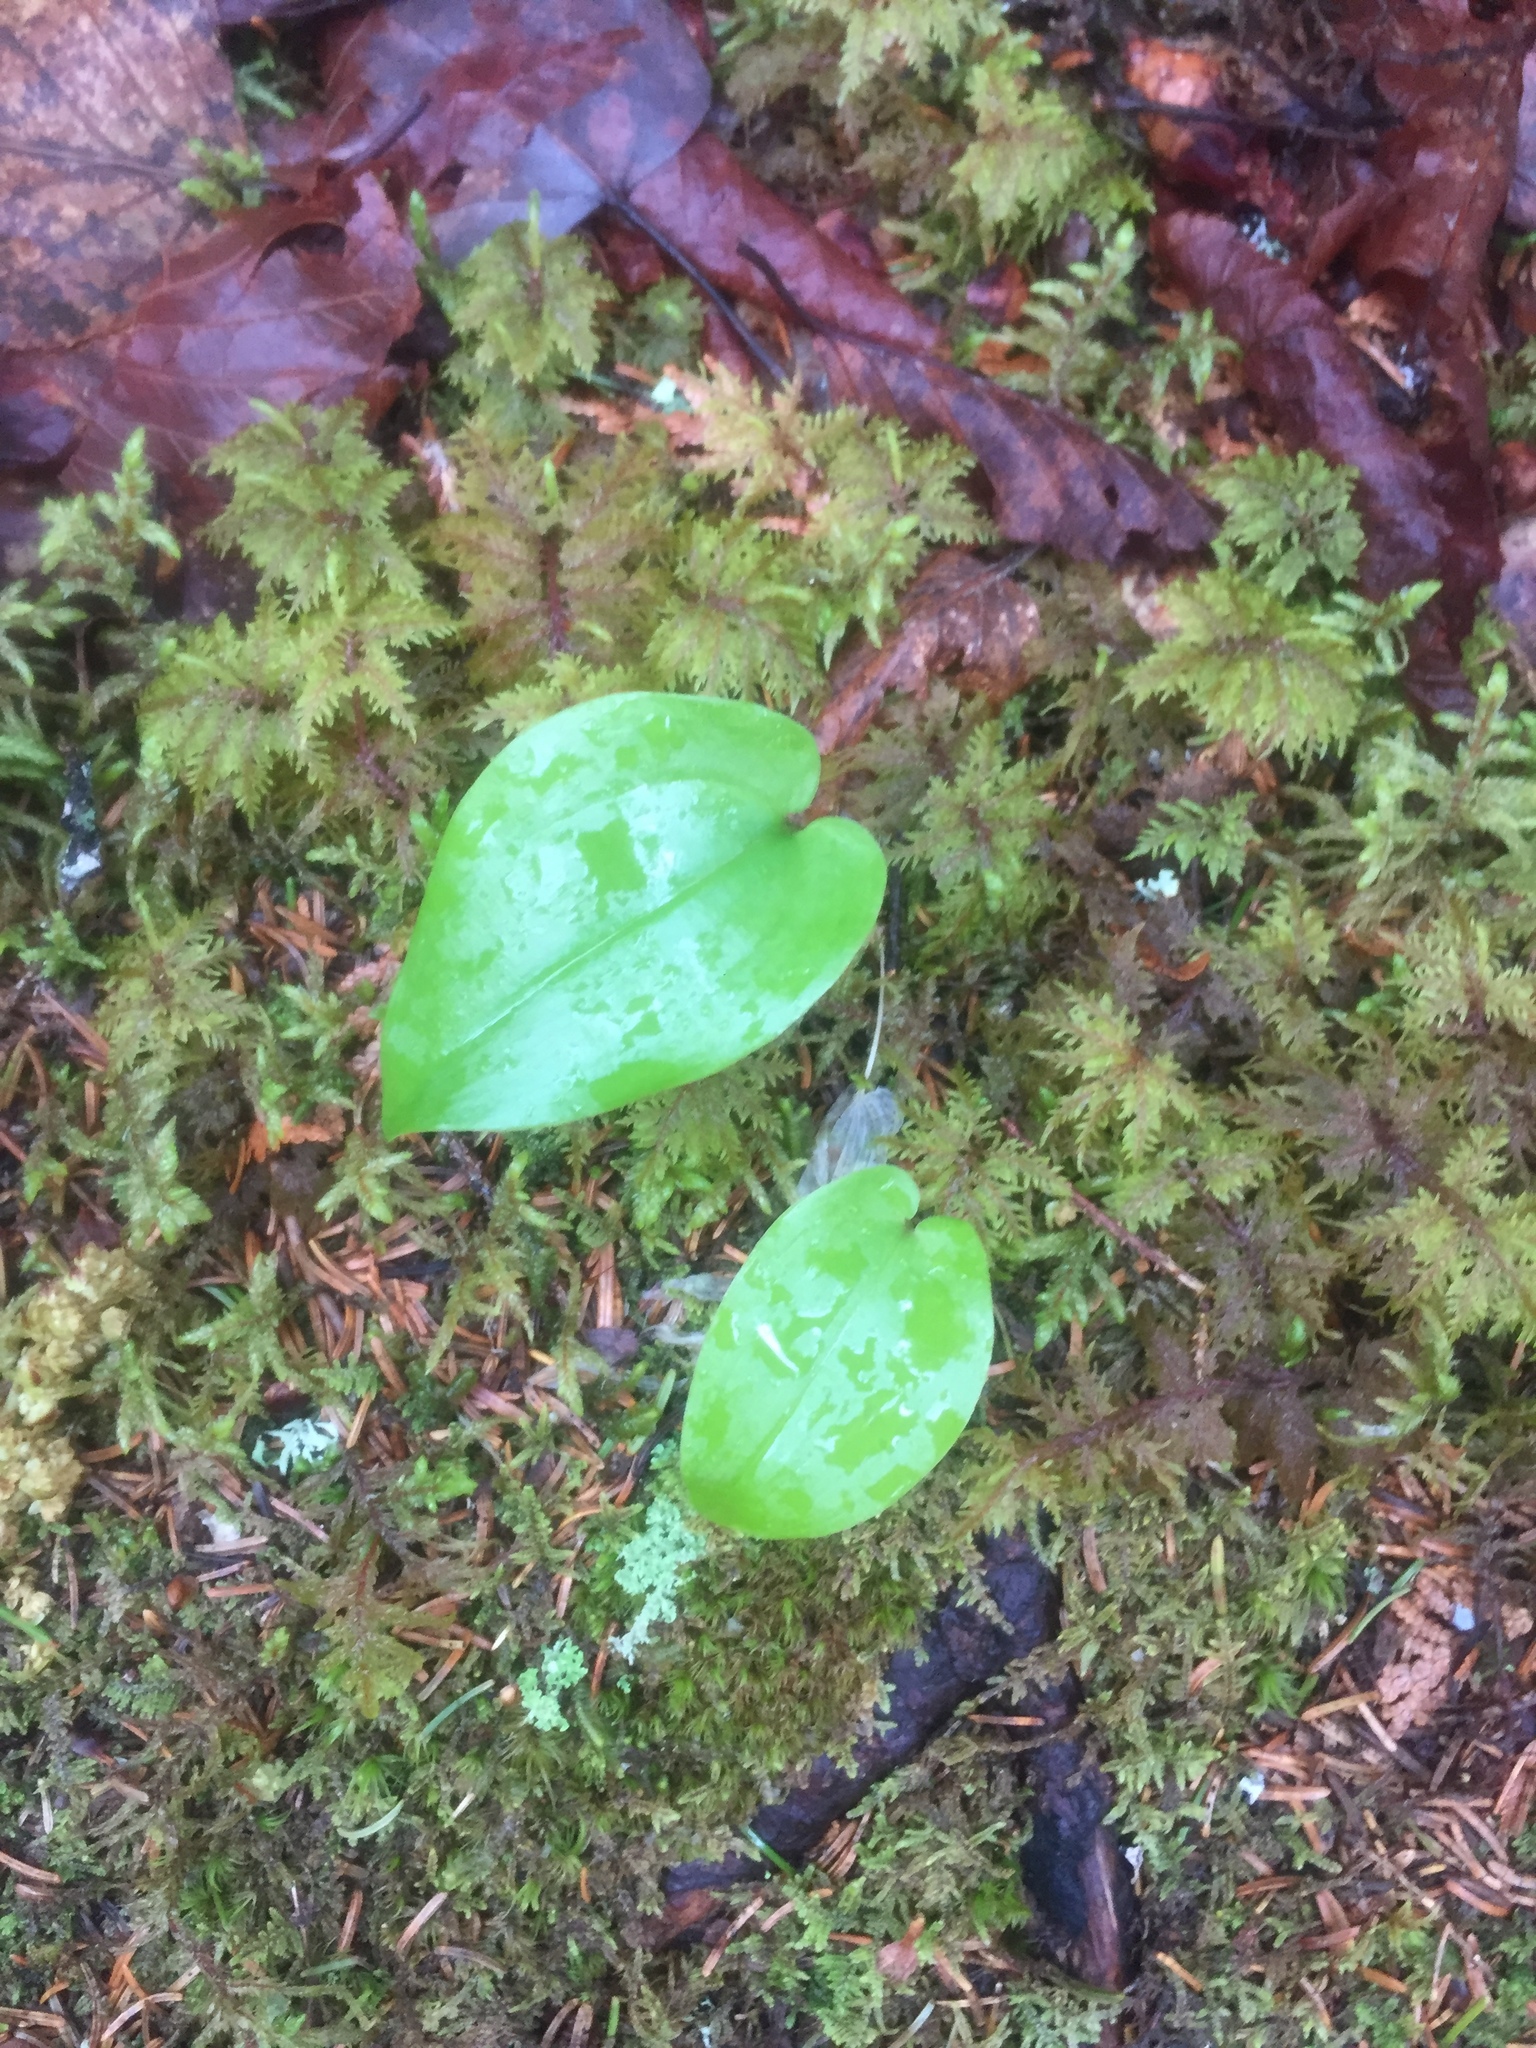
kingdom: Plantae
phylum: Tracheophyta
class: Liliopsida
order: Asparagales
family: Asparagaceae
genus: Maianthemum
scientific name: Maianthemum canadense
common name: False lily-of-the-valley
